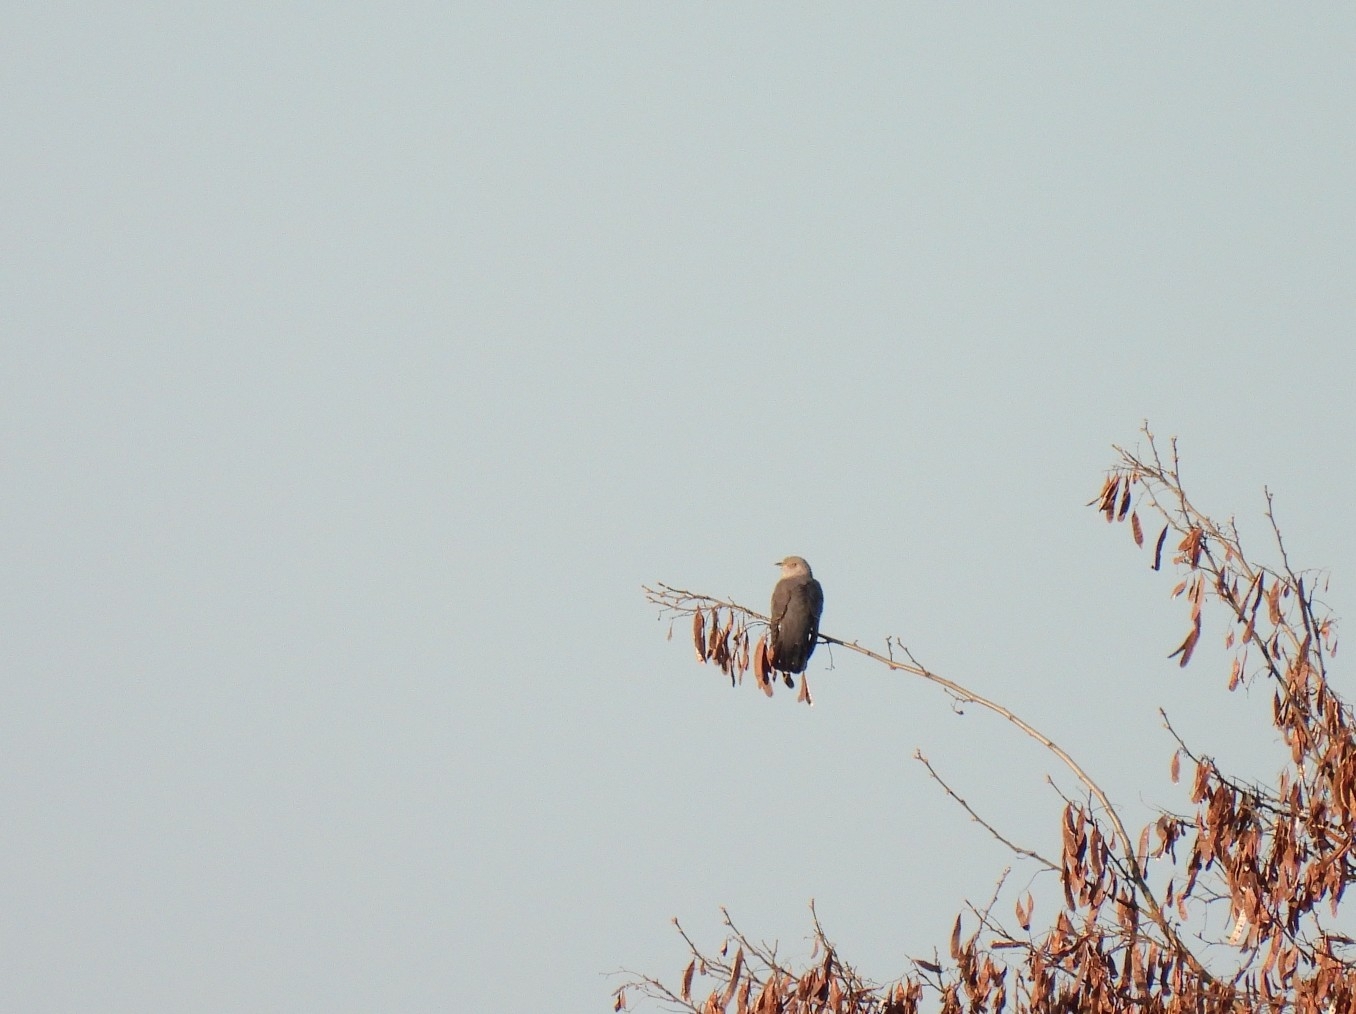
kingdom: Animalia
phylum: Chordata
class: Aves
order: Cuculiformes
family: Cuculidae
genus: Cuculus
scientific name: Cuculus canorus
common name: Common cuckoo
